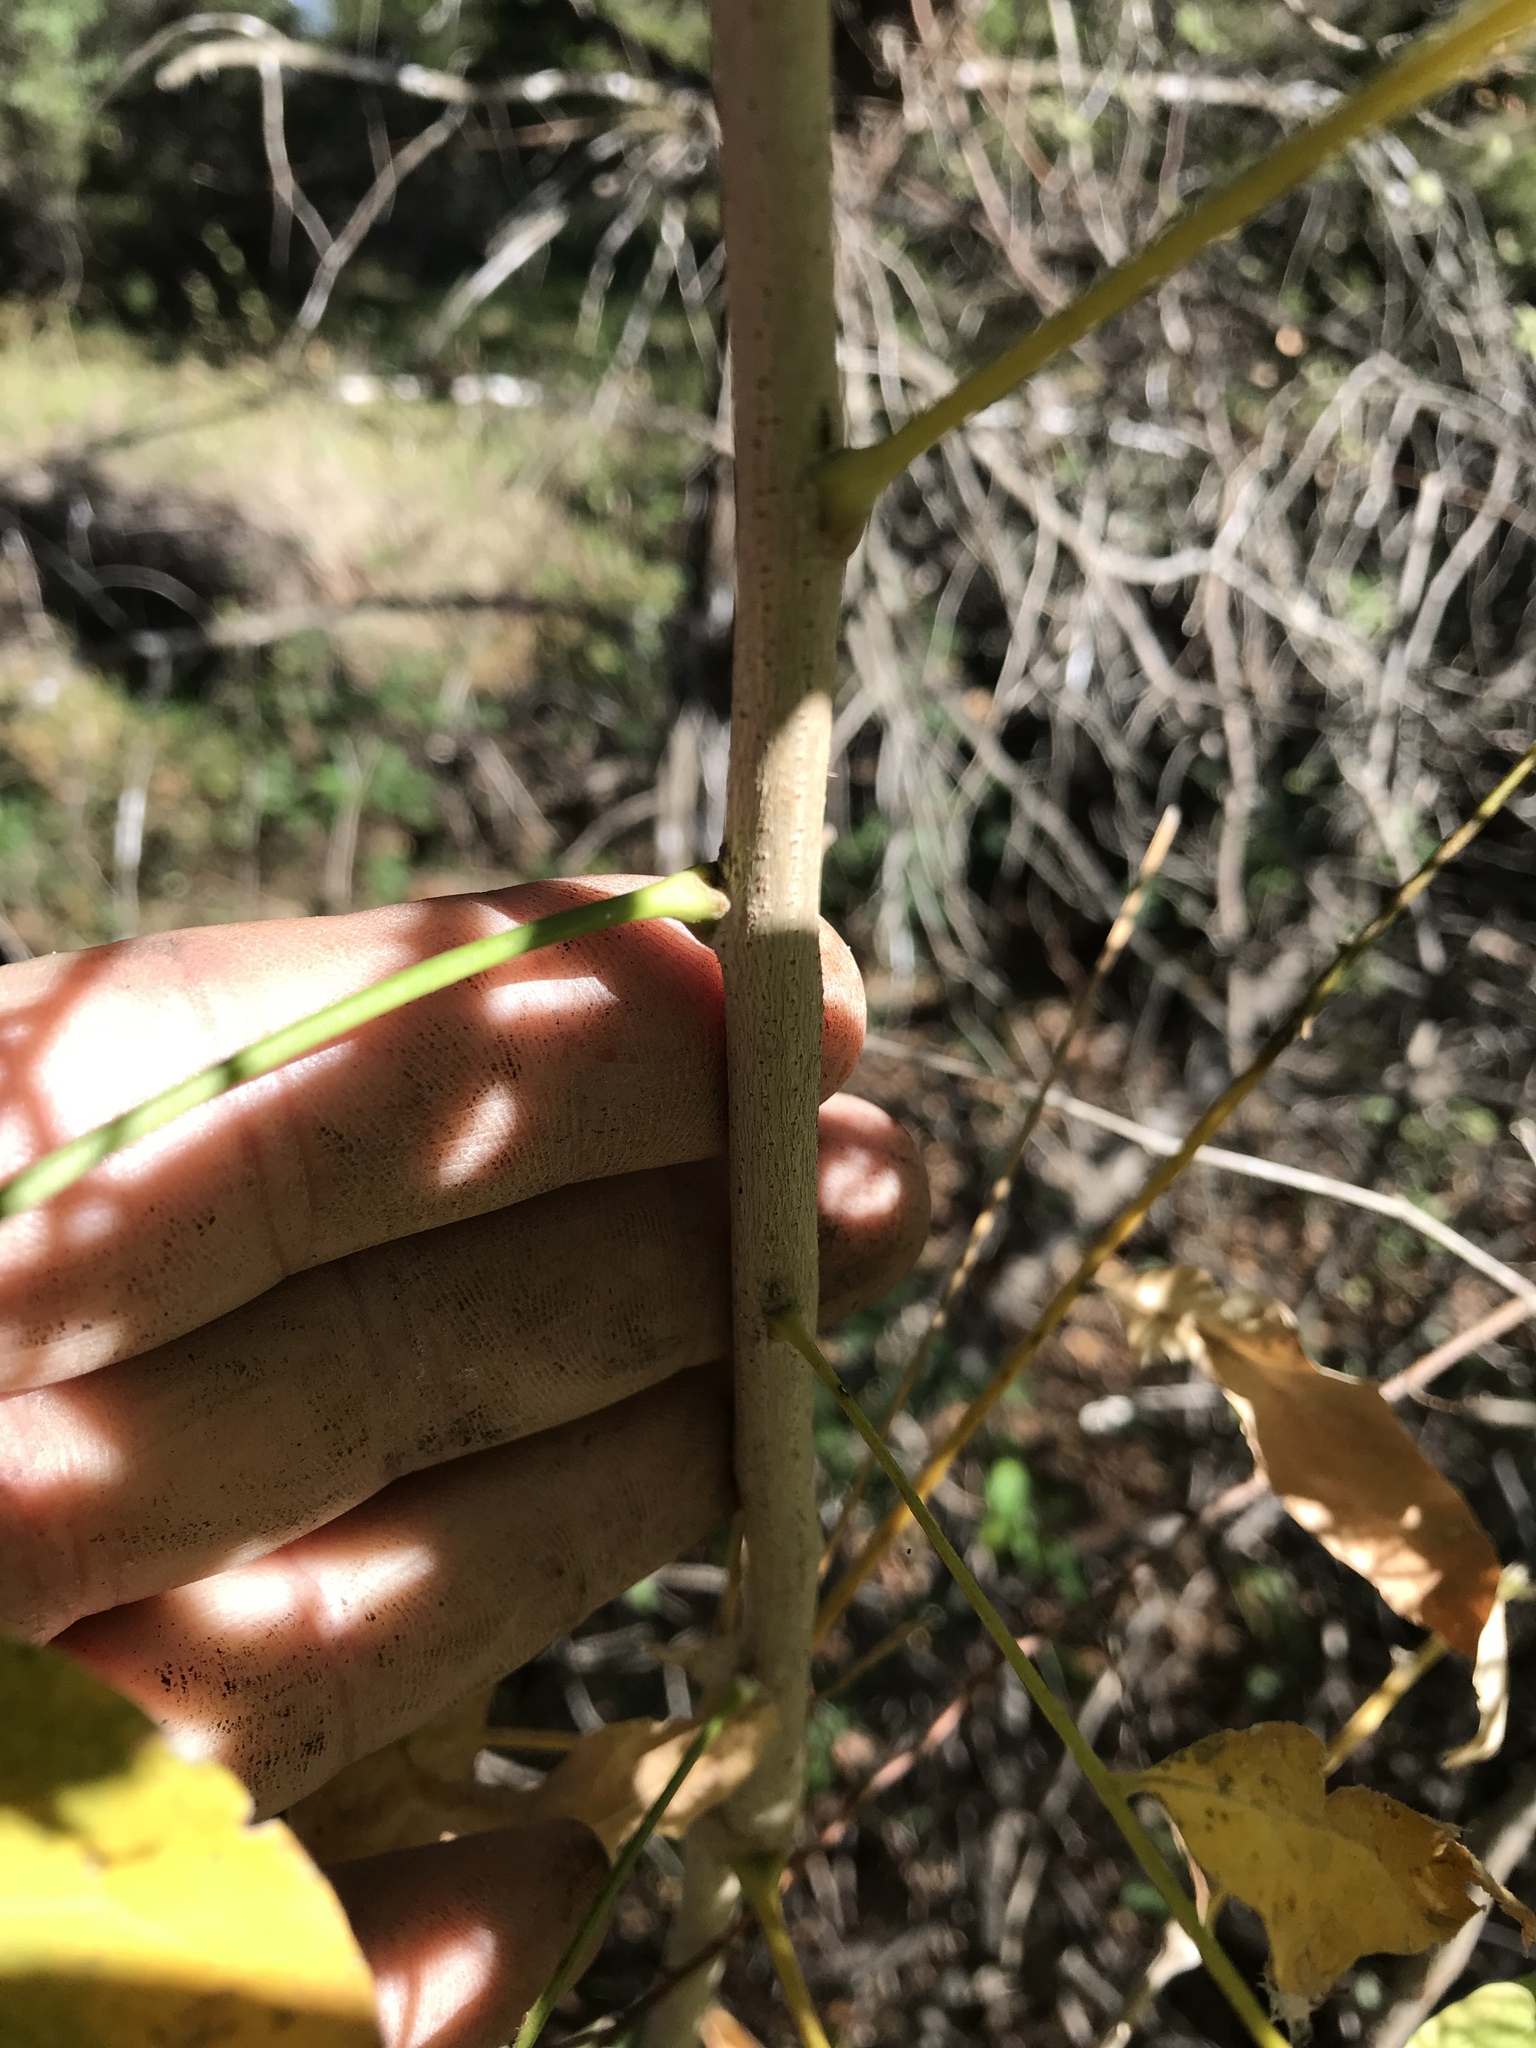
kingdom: Plantae
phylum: Tracheophyta
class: Magnoliopsida
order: Sapindales
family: Sapindaceae
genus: Sapindus
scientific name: Sapindus drummondii
